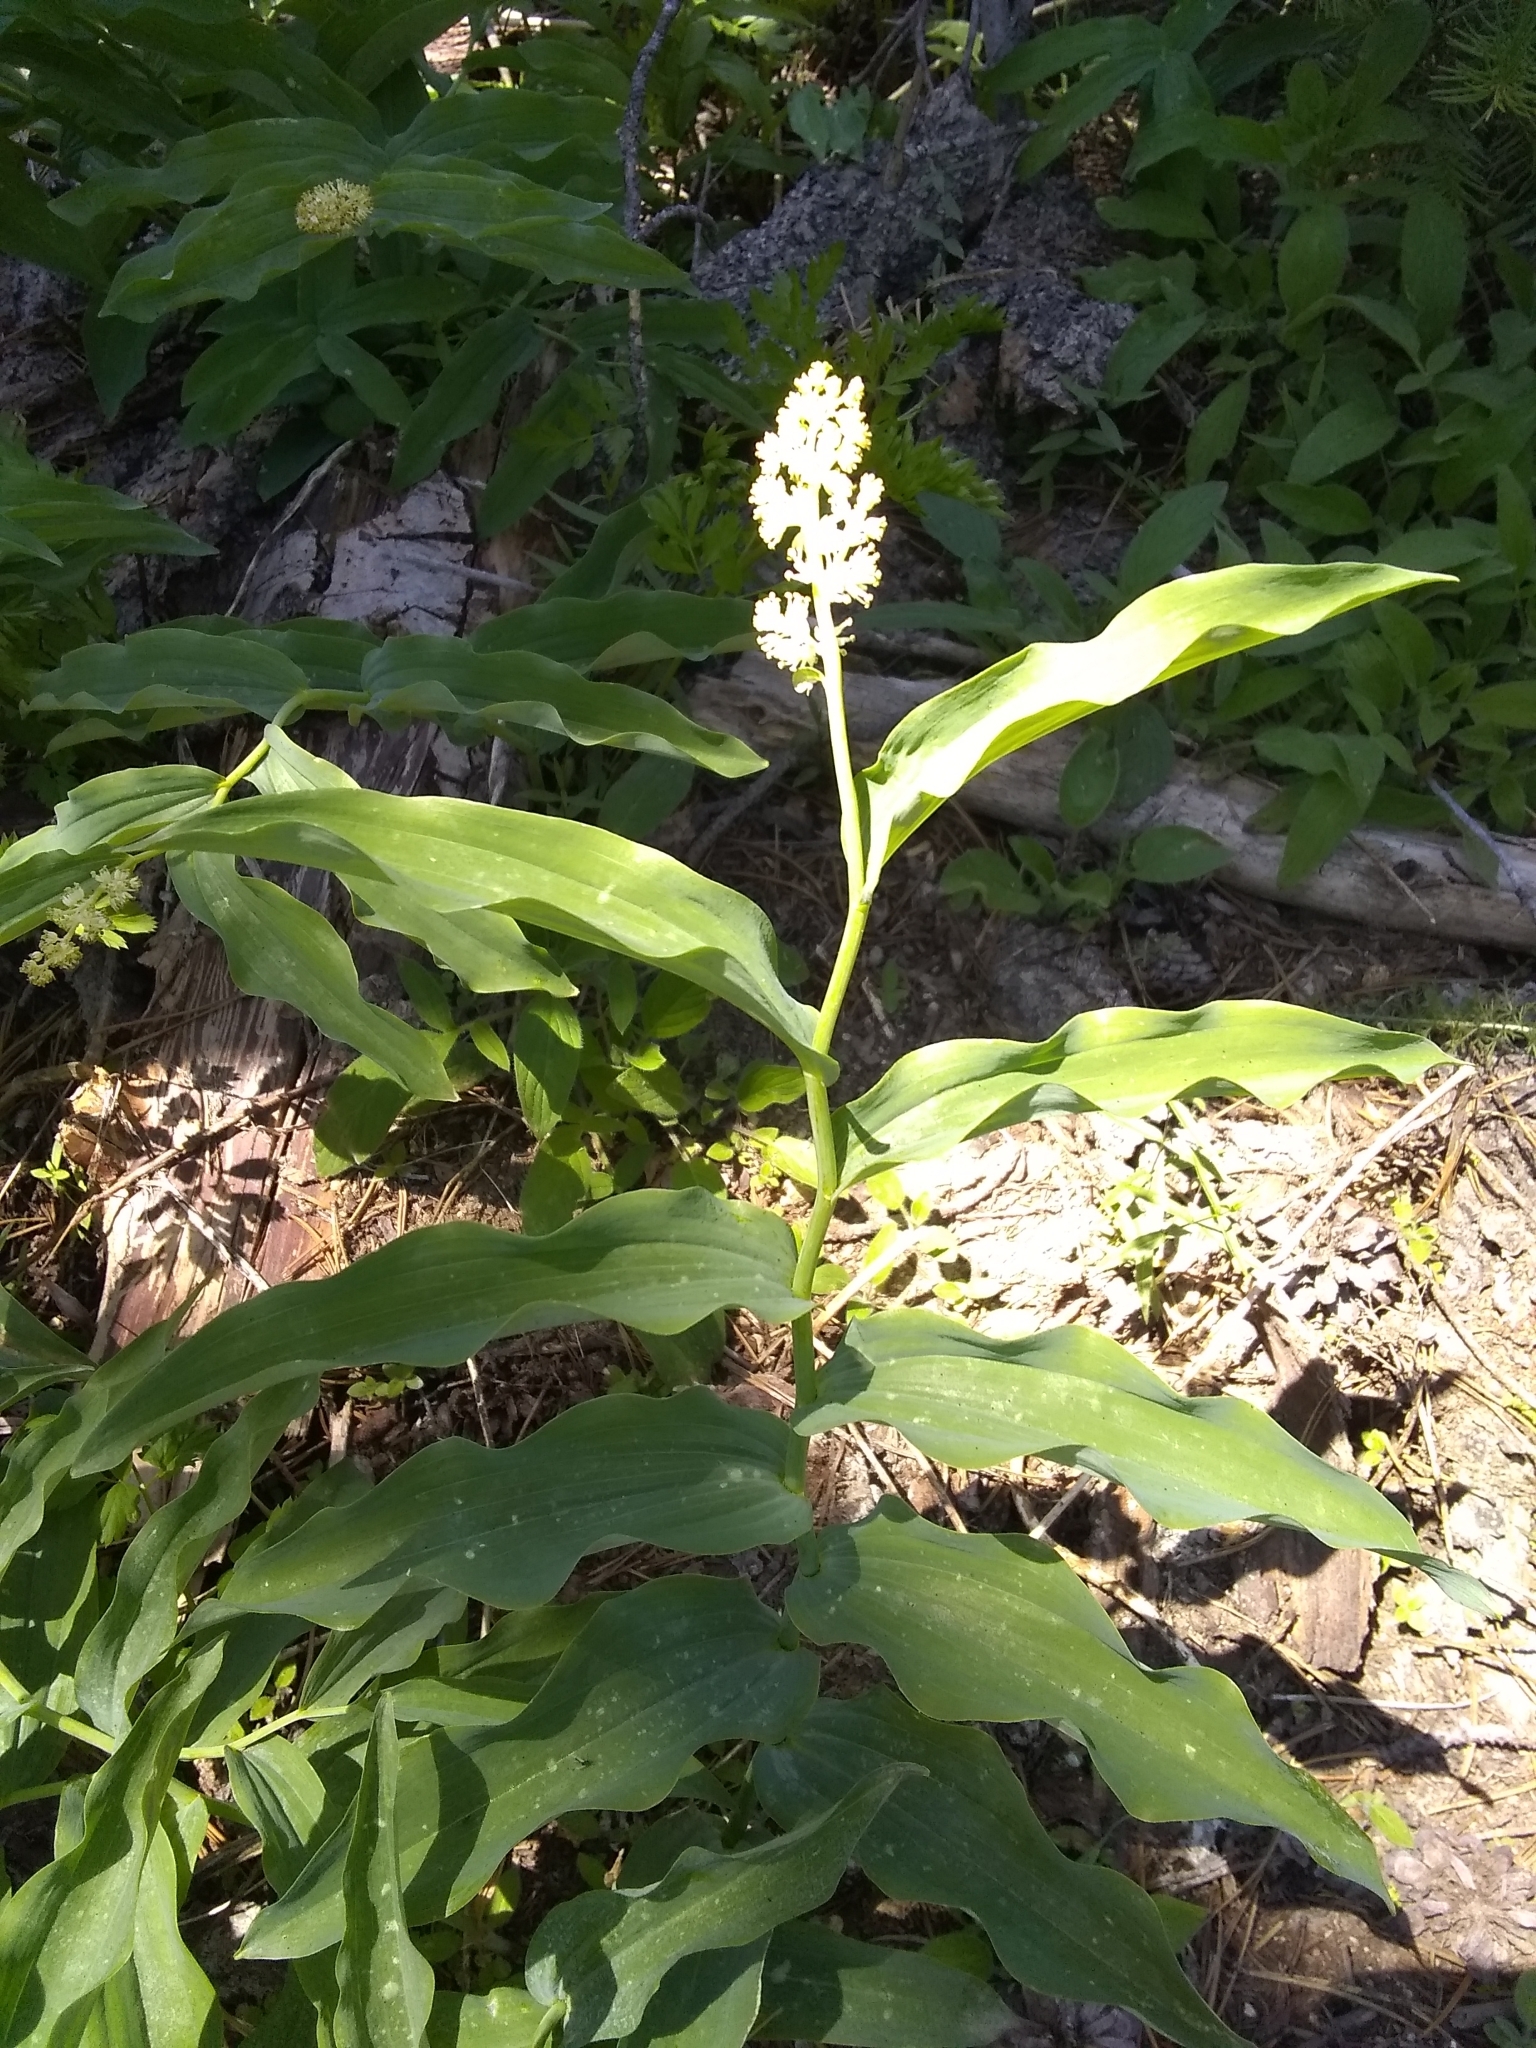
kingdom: Plantae
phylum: Tracheophyta
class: Liliopsida
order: Asparagales
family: Asparagaceae
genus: Maianthemum
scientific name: Maianthemum racemosum
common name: False spikenard
